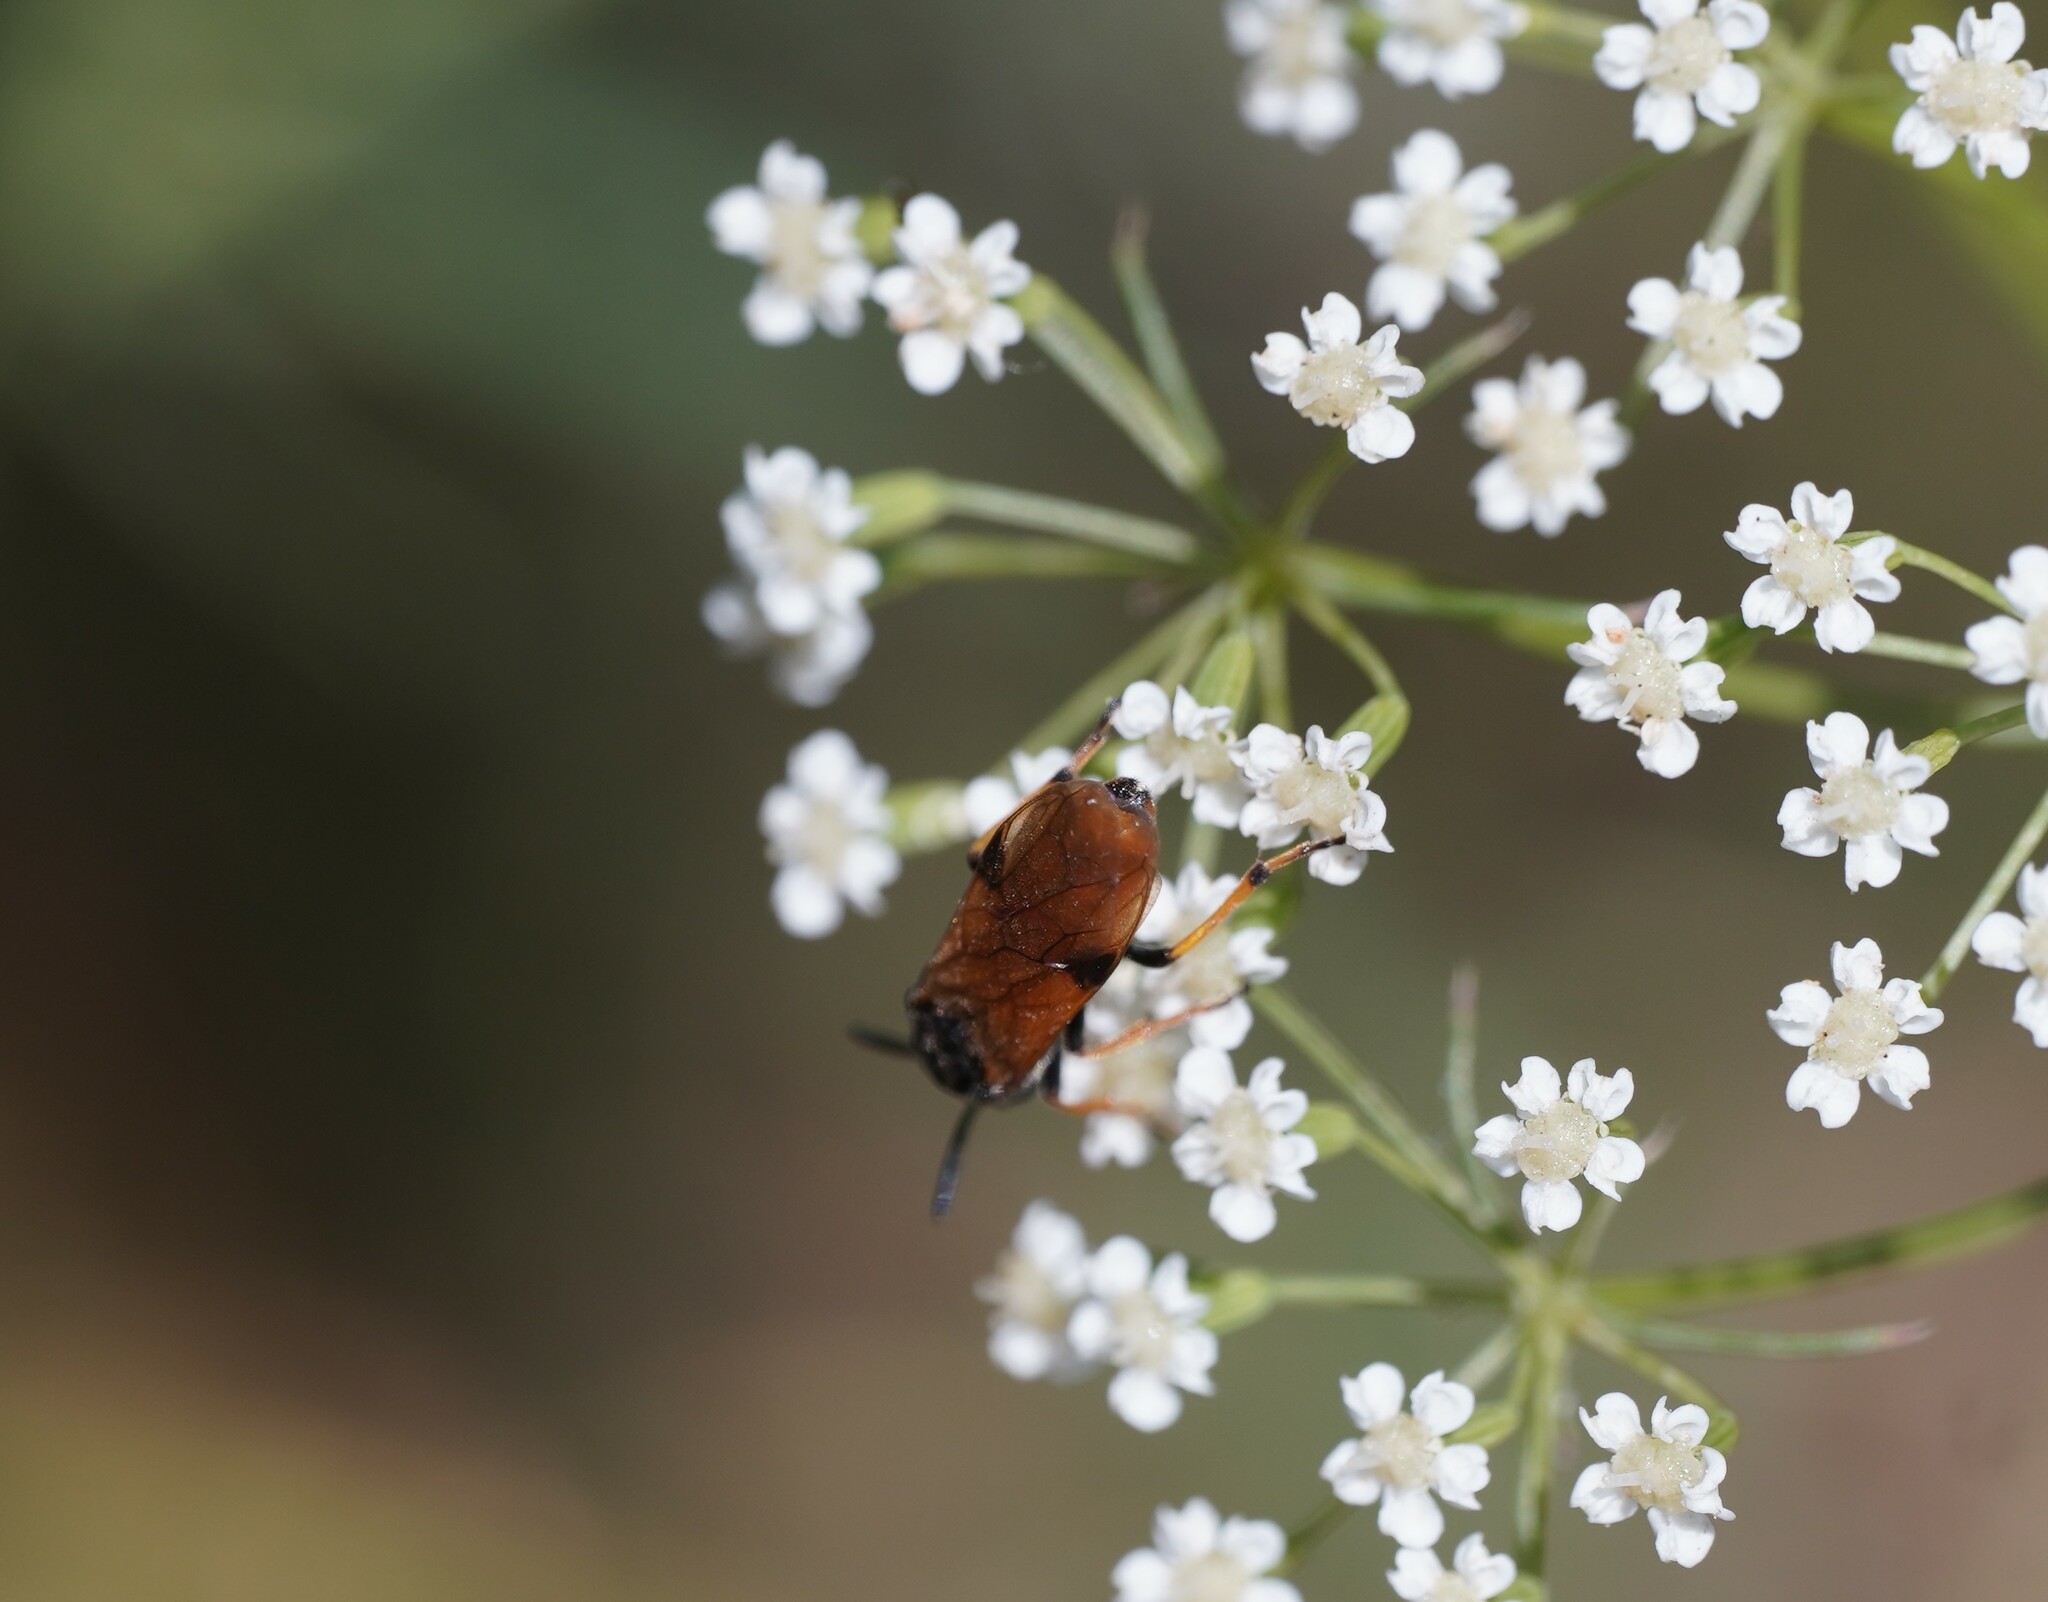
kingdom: Animalia
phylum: Arthropoda
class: Insecta
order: Hymenoptera
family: Argidae
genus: Arge
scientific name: Arge melanochra
